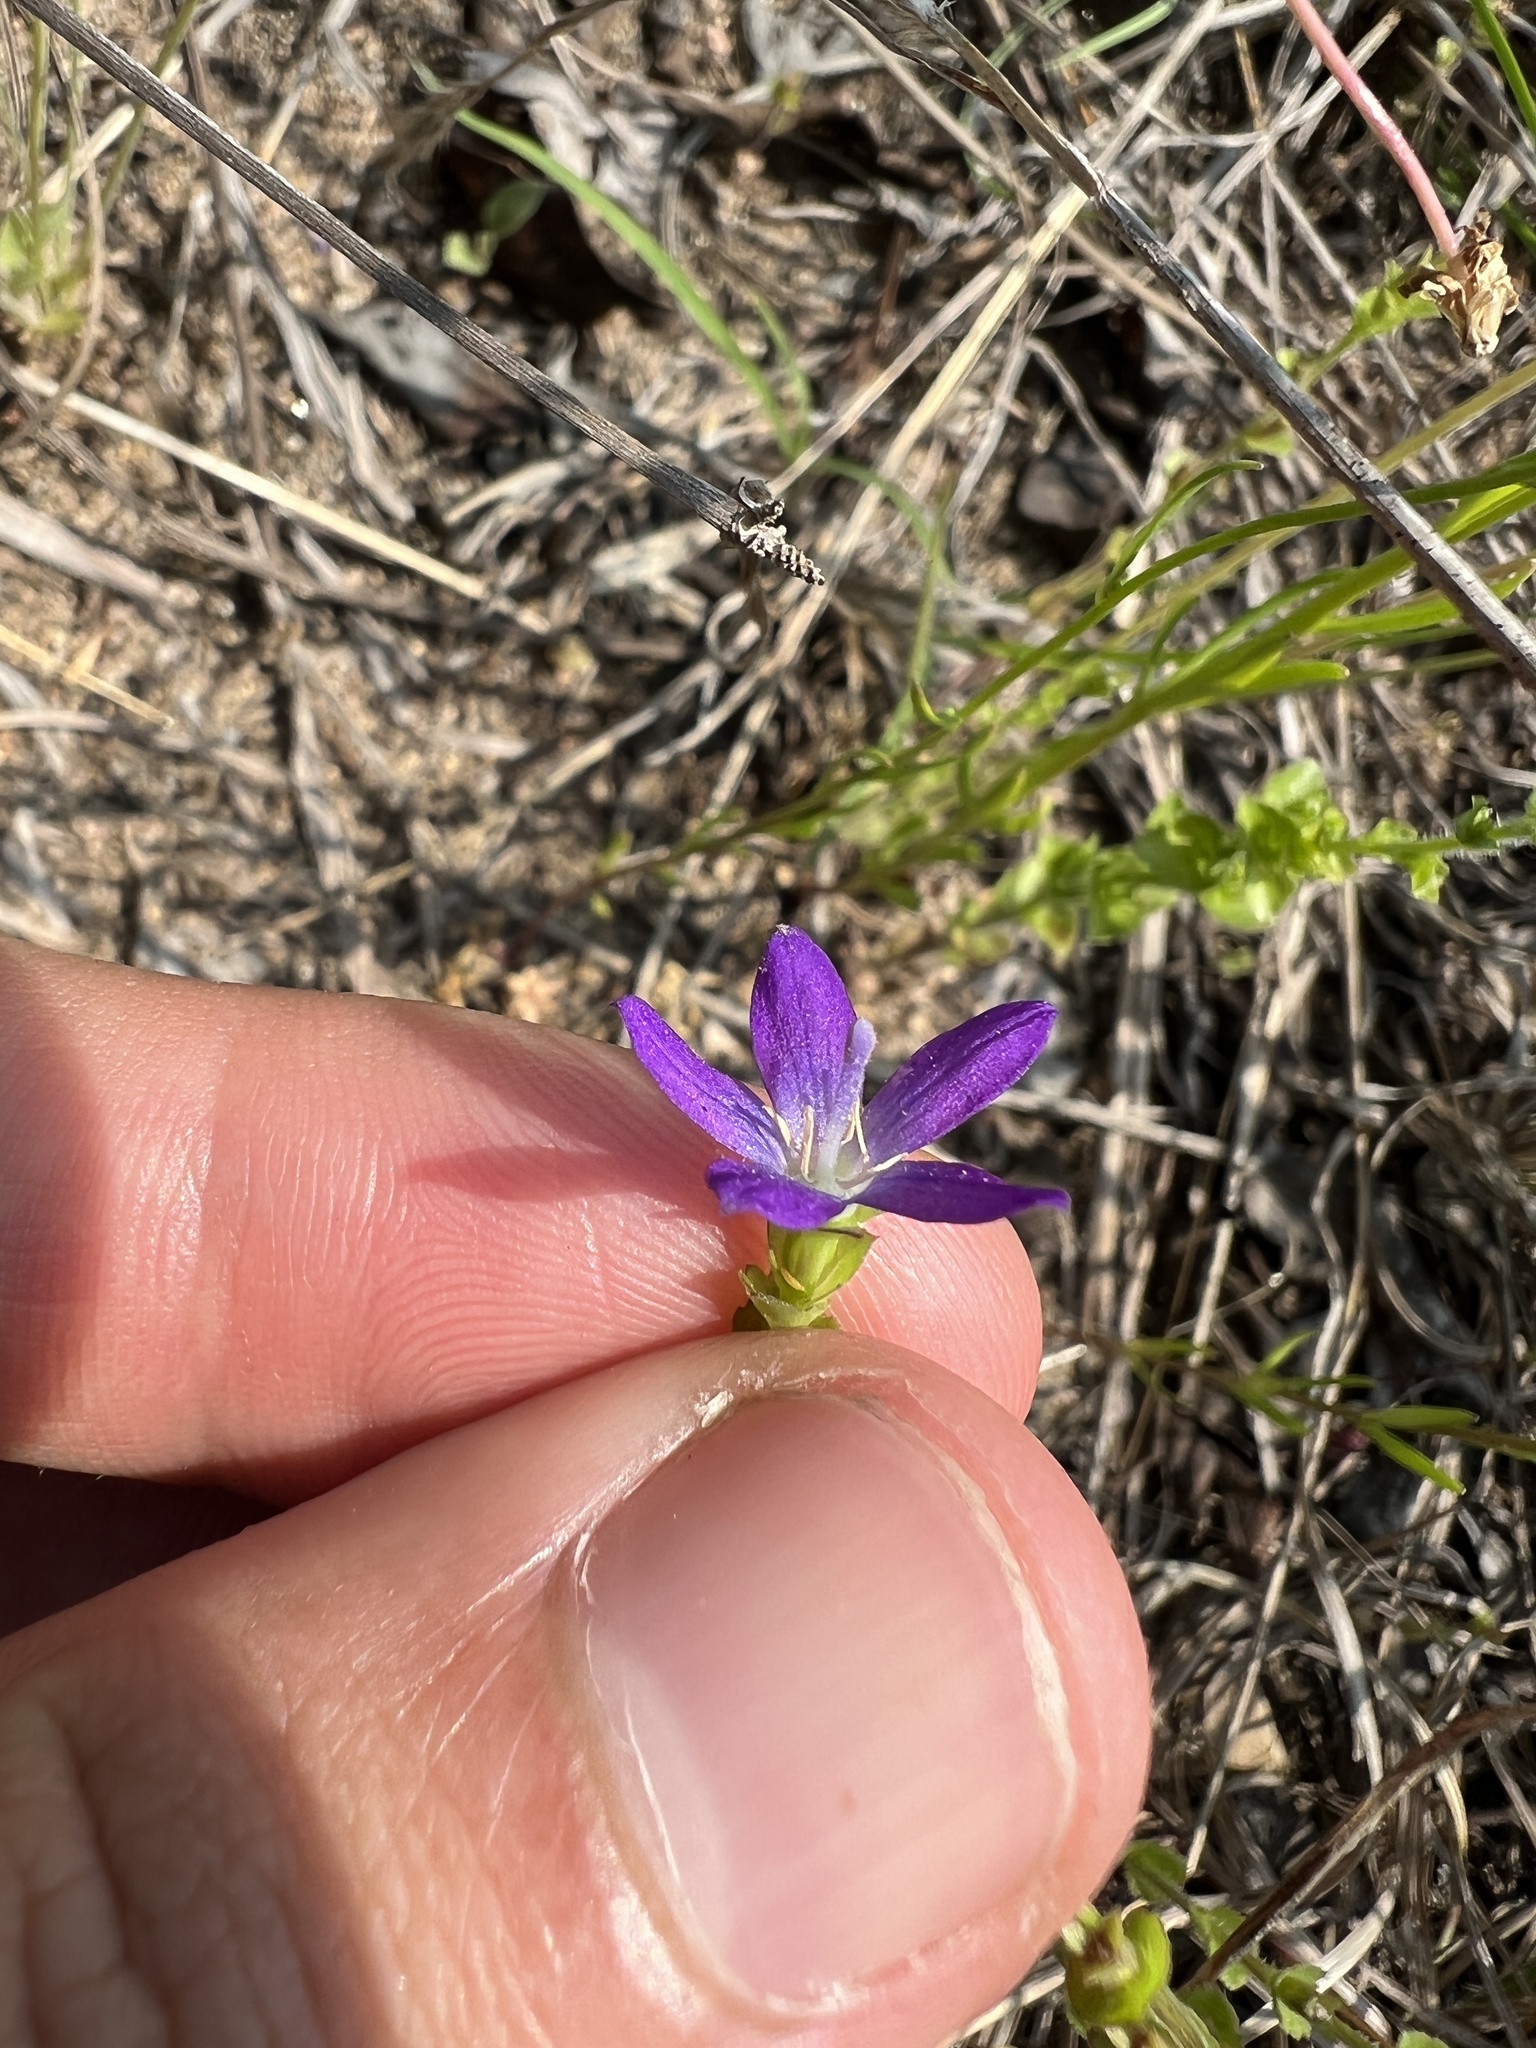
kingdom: Plantae
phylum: Tracheophyta
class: Magnoliopsida
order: Asterales
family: Campanulaceae
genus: Triodanis
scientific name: Triodanis perfoliata
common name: Clasping venus' looking-glass
